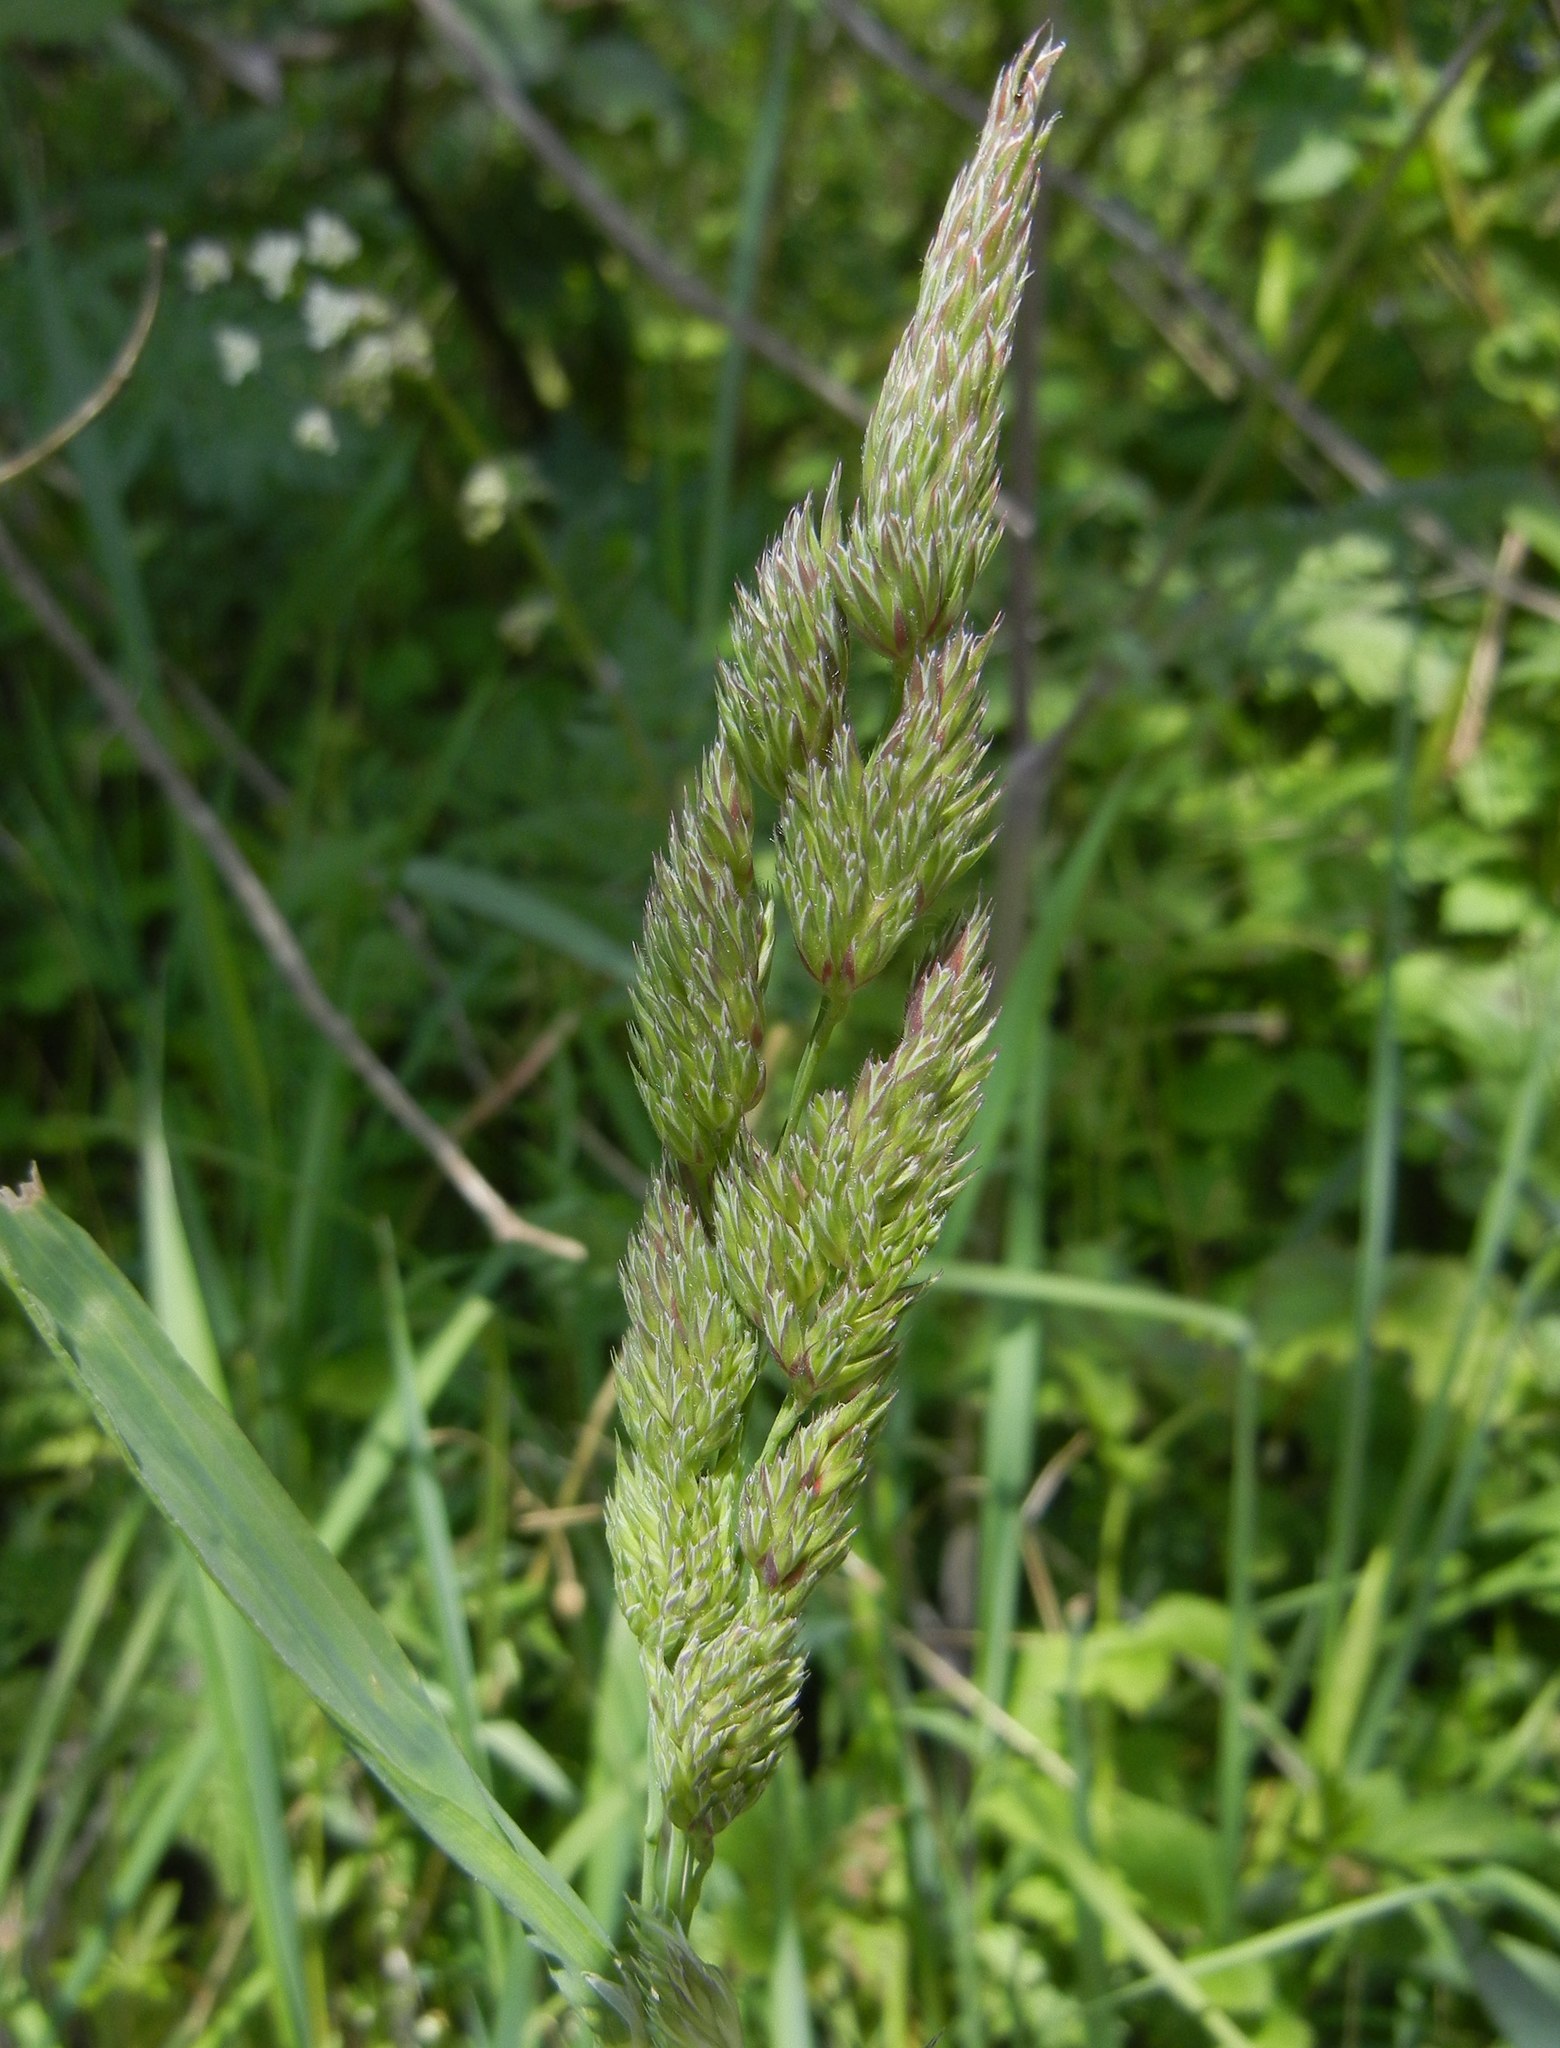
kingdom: Plantae
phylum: Tracheophyta
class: Liliopsida
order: Poales
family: Poaceae
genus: Dactylis
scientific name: Dactylis glomerata
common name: Orchardgrass
